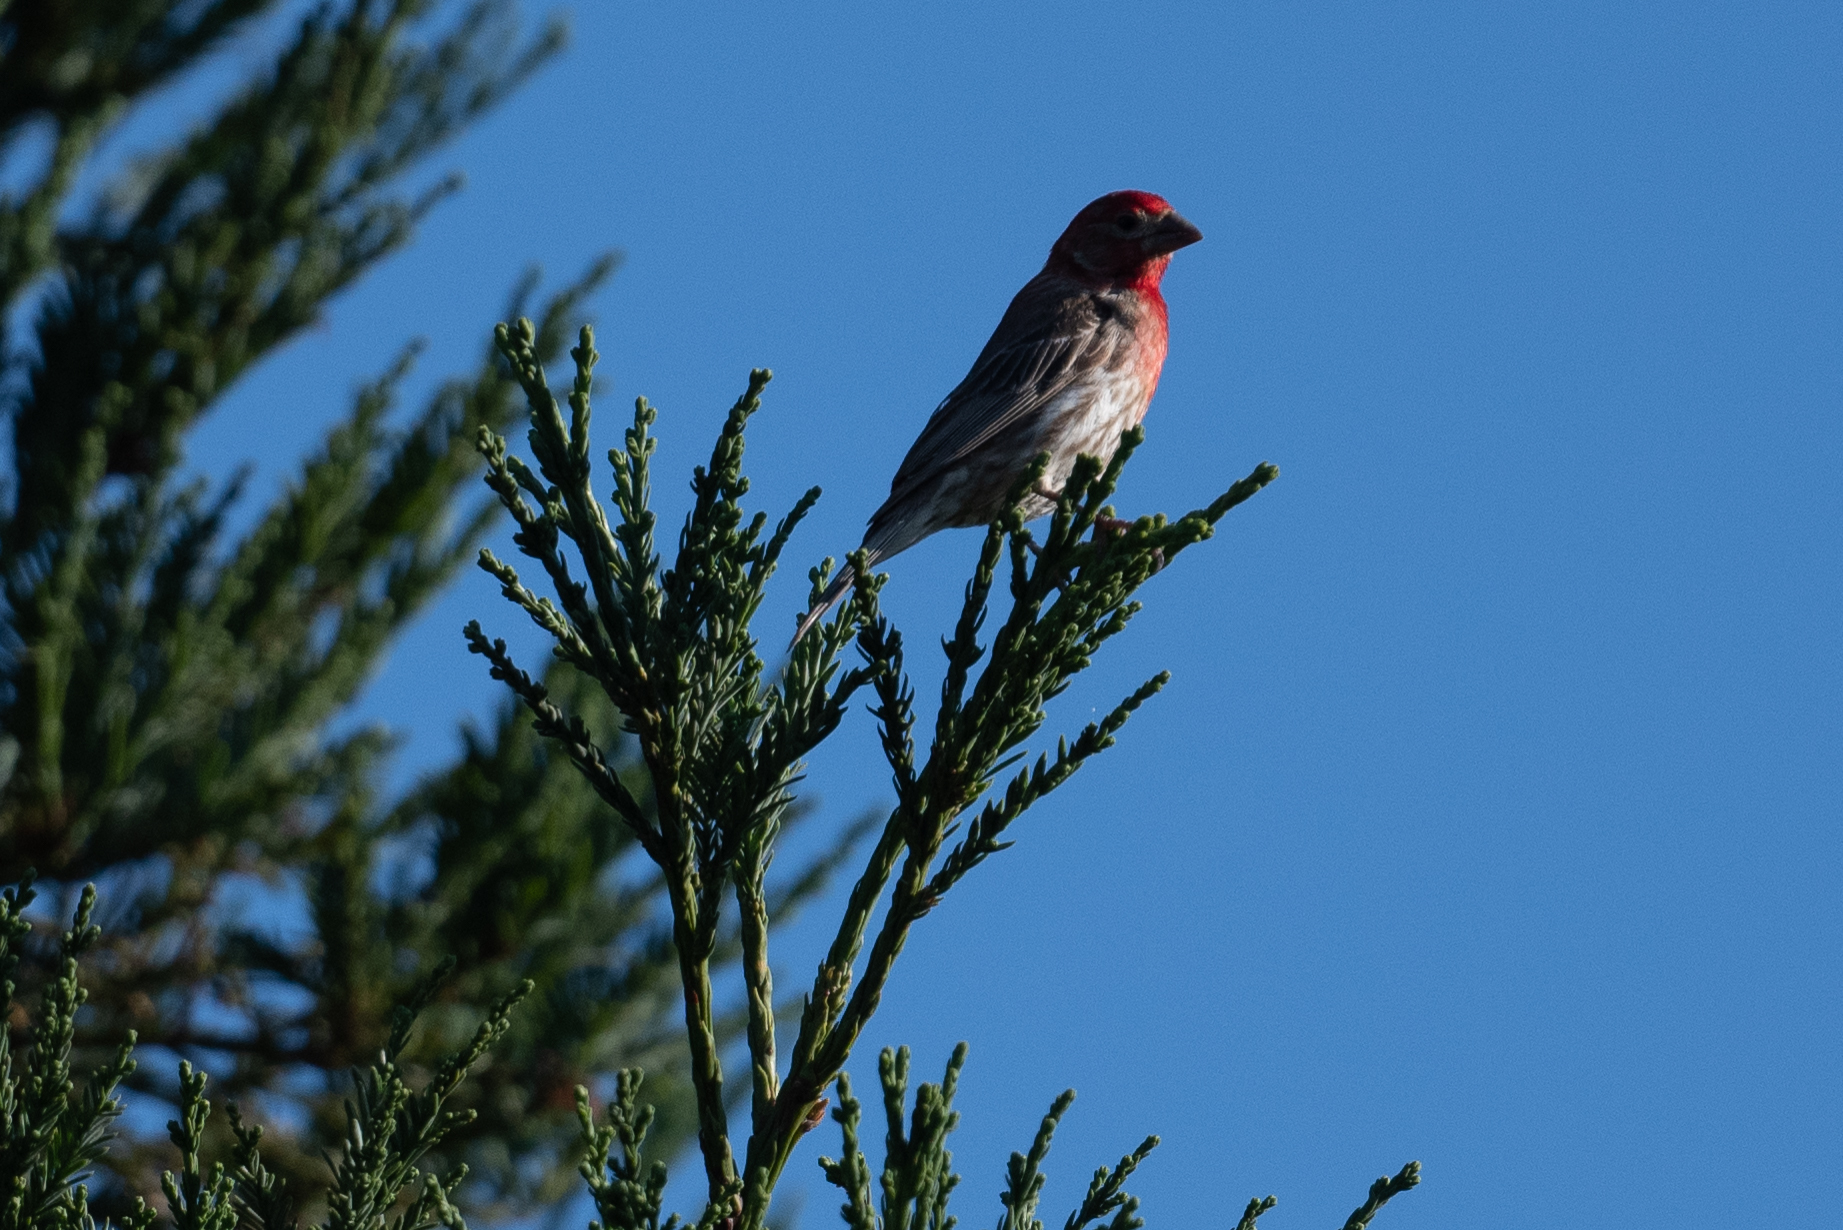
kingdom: Animalia
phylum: Chordata
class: Aves
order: Passeriformes
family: Fringillidae
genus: Haemorhous
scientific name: Haemorhous mexicanus
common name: House finch
